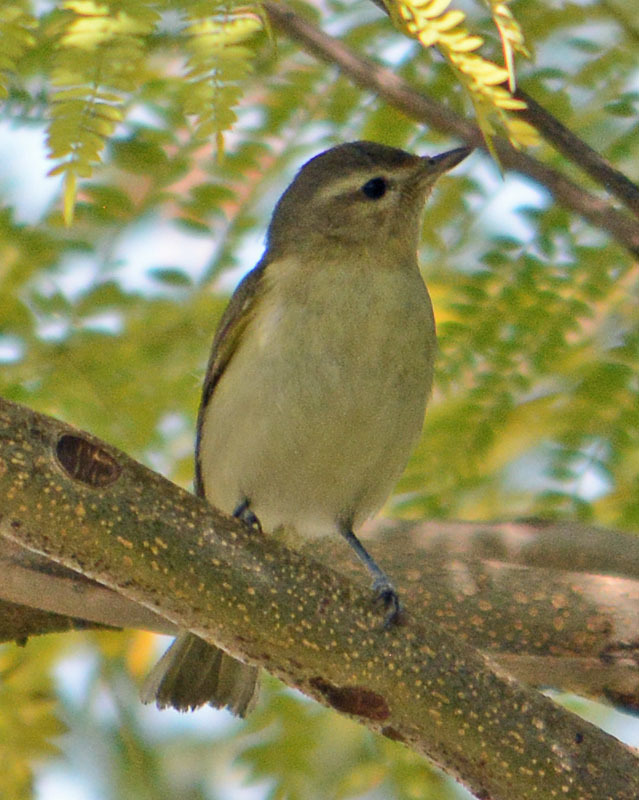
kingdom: Animalia
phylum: Chordata
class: Aves
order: Passeriformes
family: Vireonidae
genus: Vireo
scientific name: Vireo gilvus
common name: Warbling vireo
